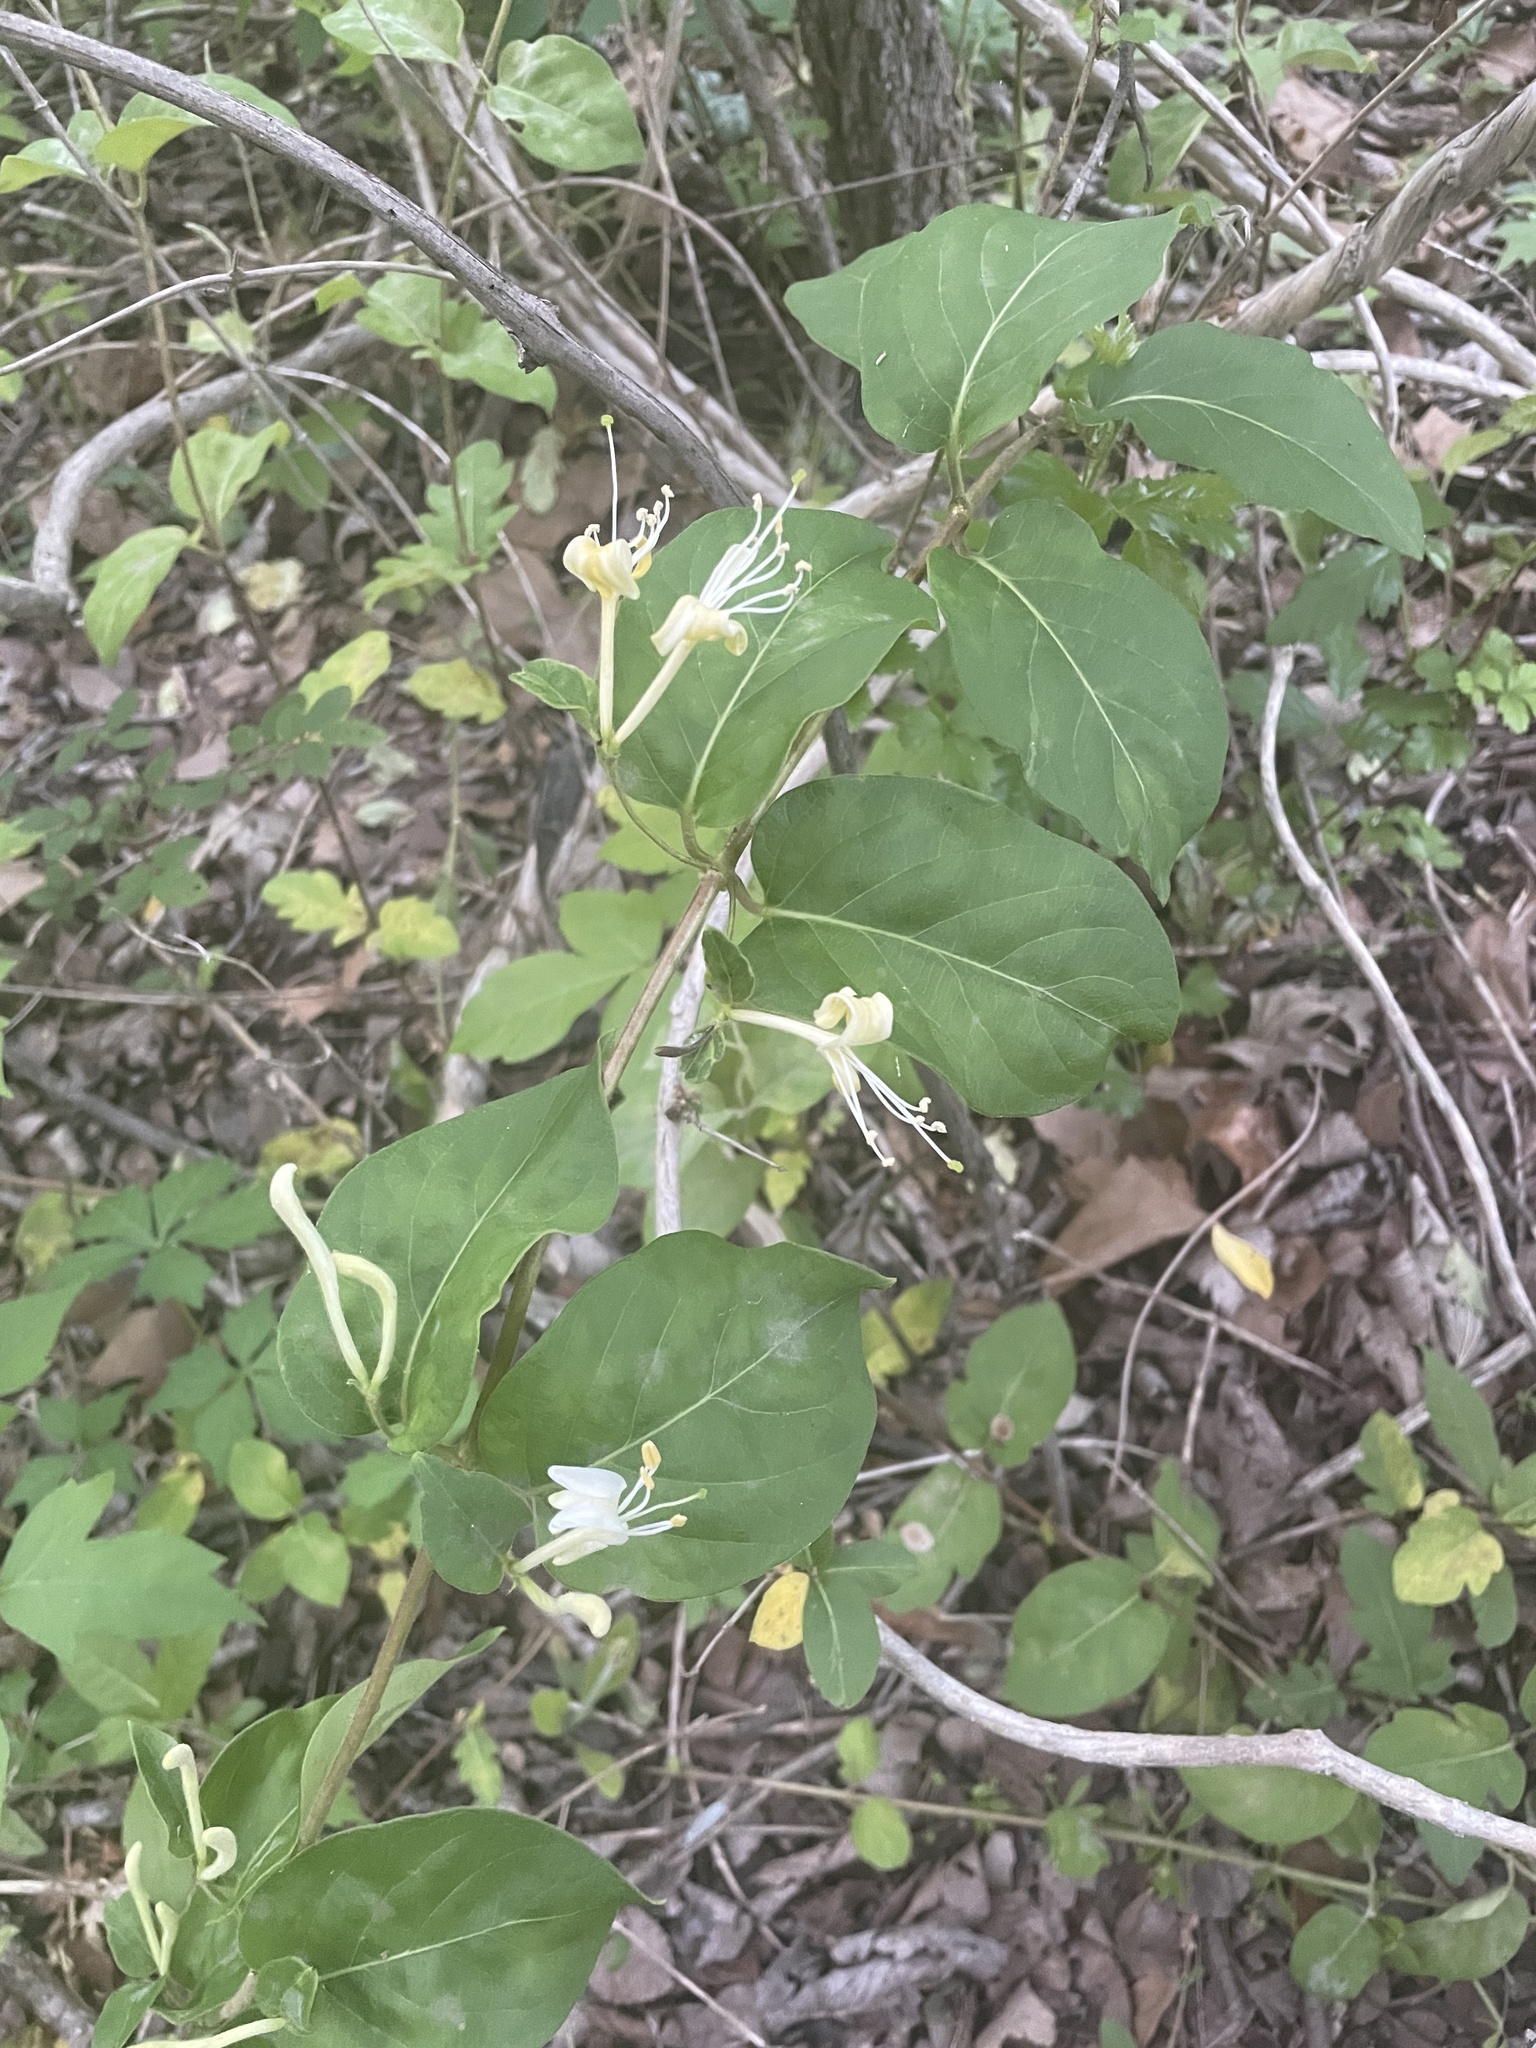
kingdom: Plantae
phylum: Tracheophyta
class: Magnoliopsida
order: Dipsacales
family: Caprifoliaceae
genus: Lonicera
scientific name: Lonicera japonica
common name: Japanese honeysuckle
